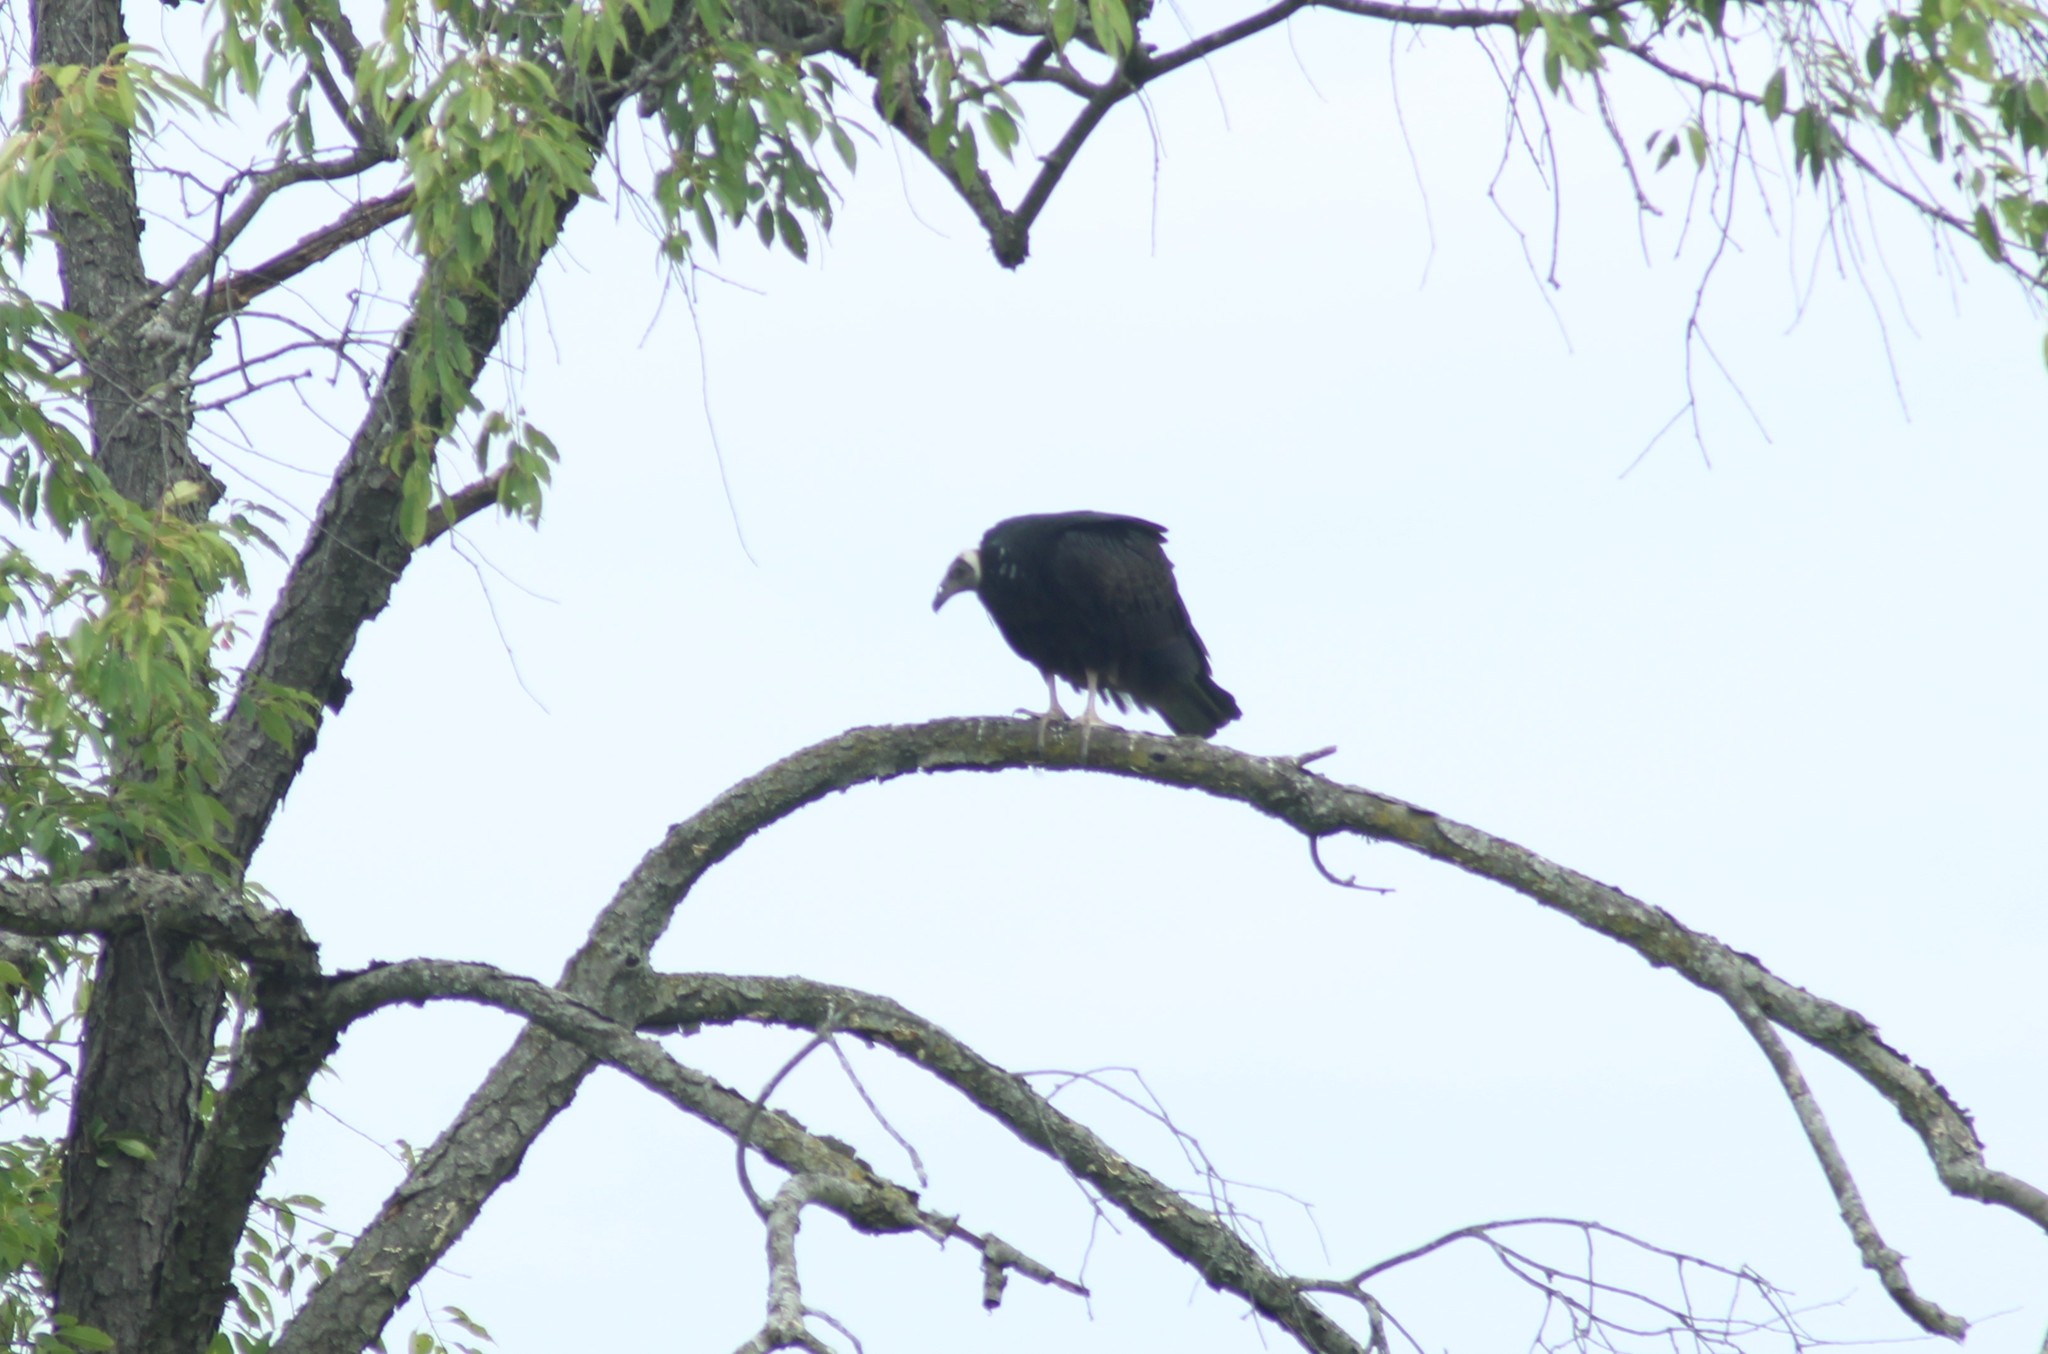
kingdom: Animalia
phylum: Chordata
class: Aves
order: Accipitriformes
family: Cathartidae
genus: Cathartes
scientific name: Cathartes aura
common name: Turkey vulture
